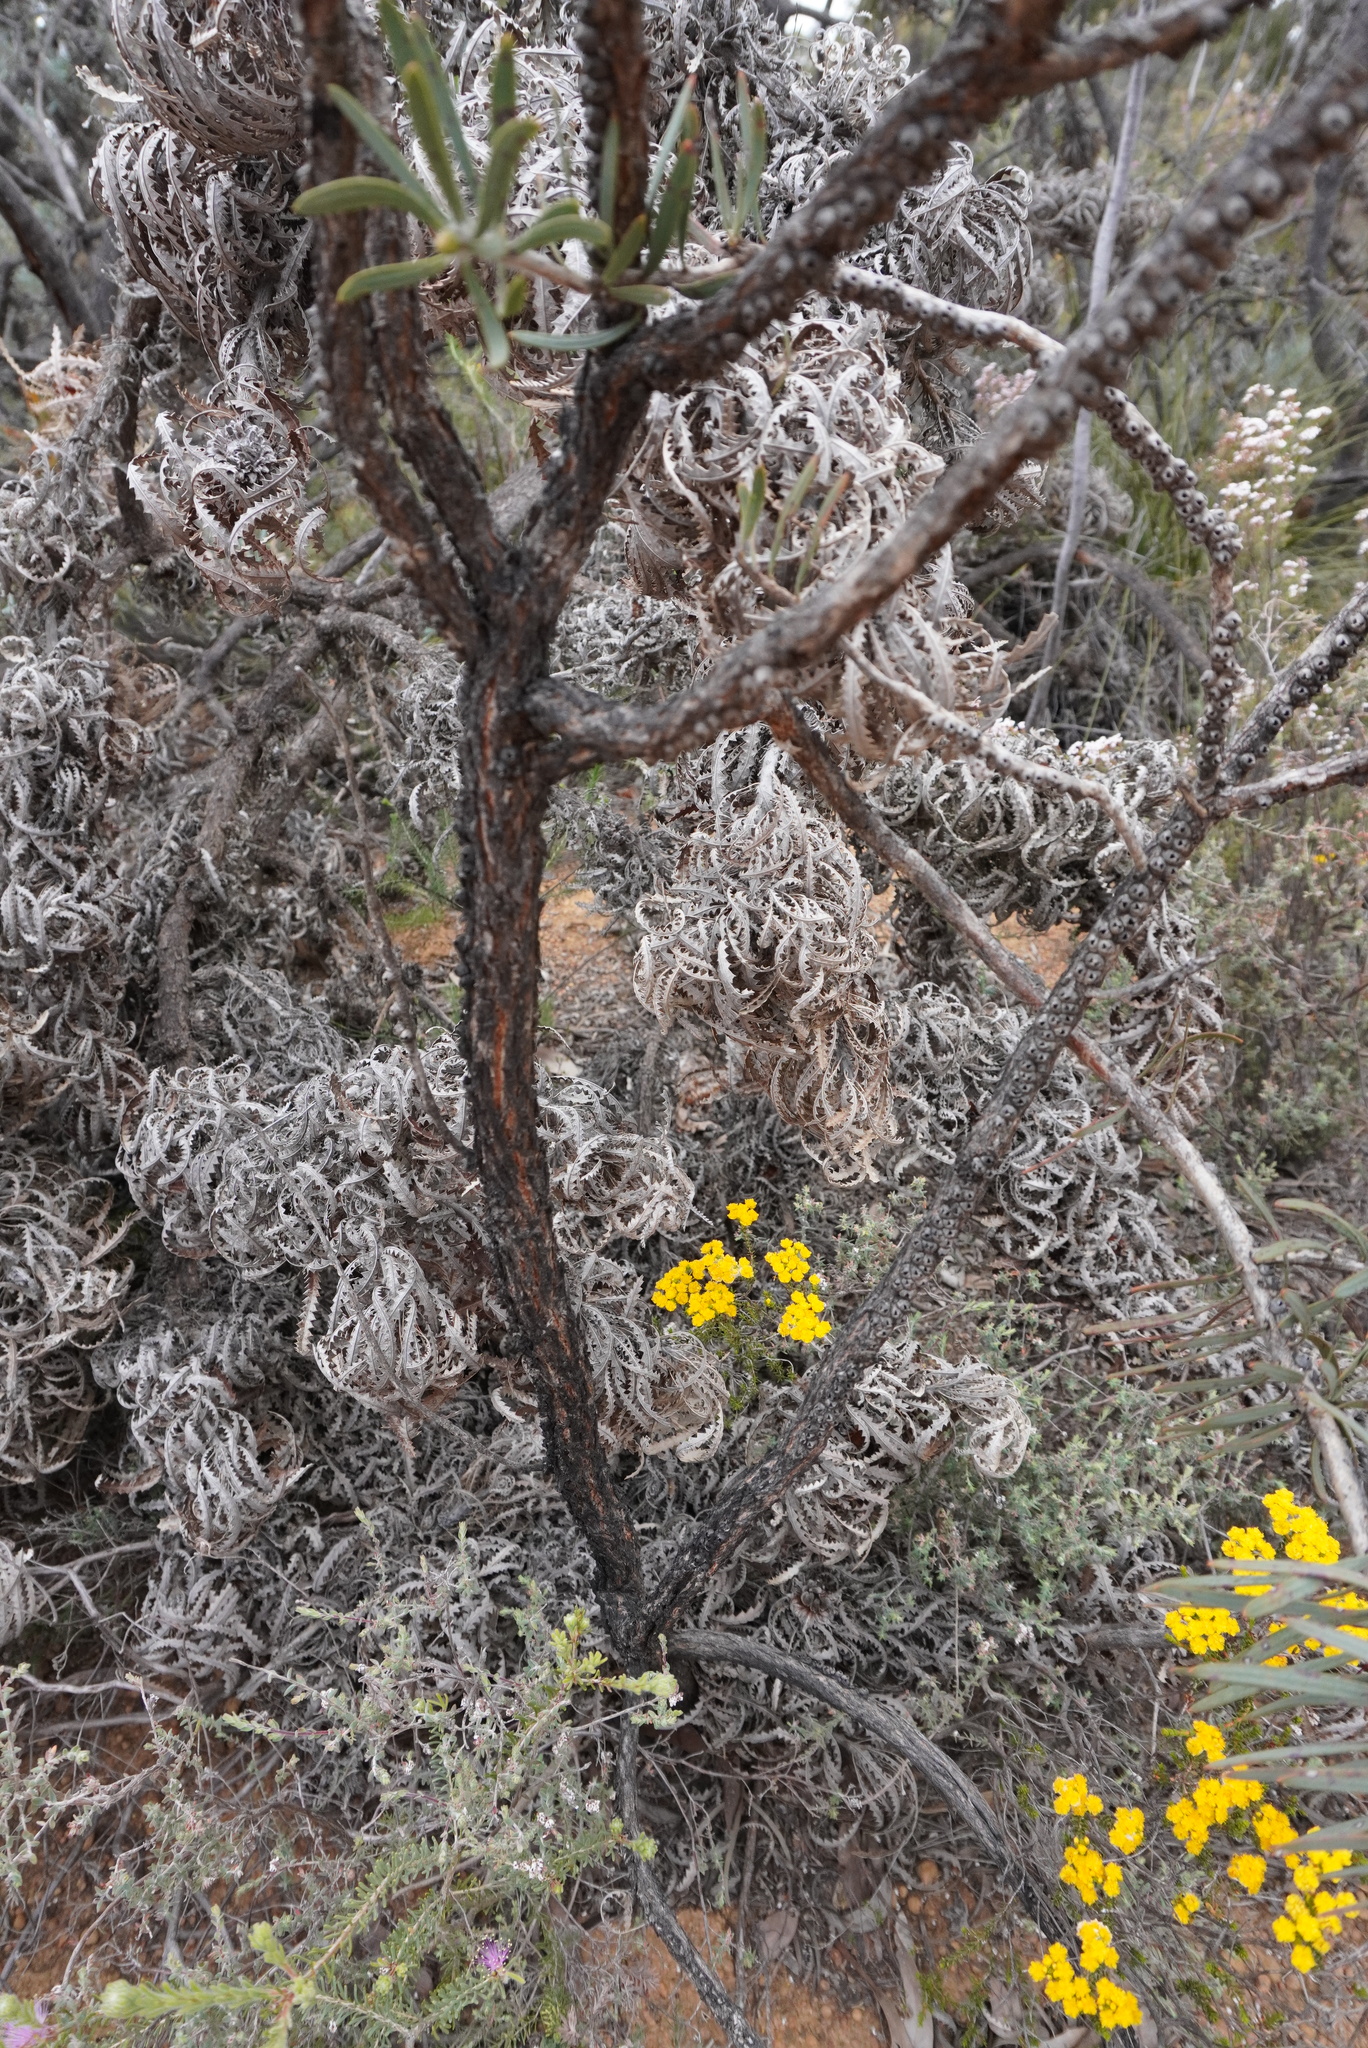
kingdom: Plantae
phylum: Tracheophyta
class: Magnoliopsida
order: Myrtales
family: Myrtaceae
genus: Melaleuca
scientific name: Melaleuca quadrifida
